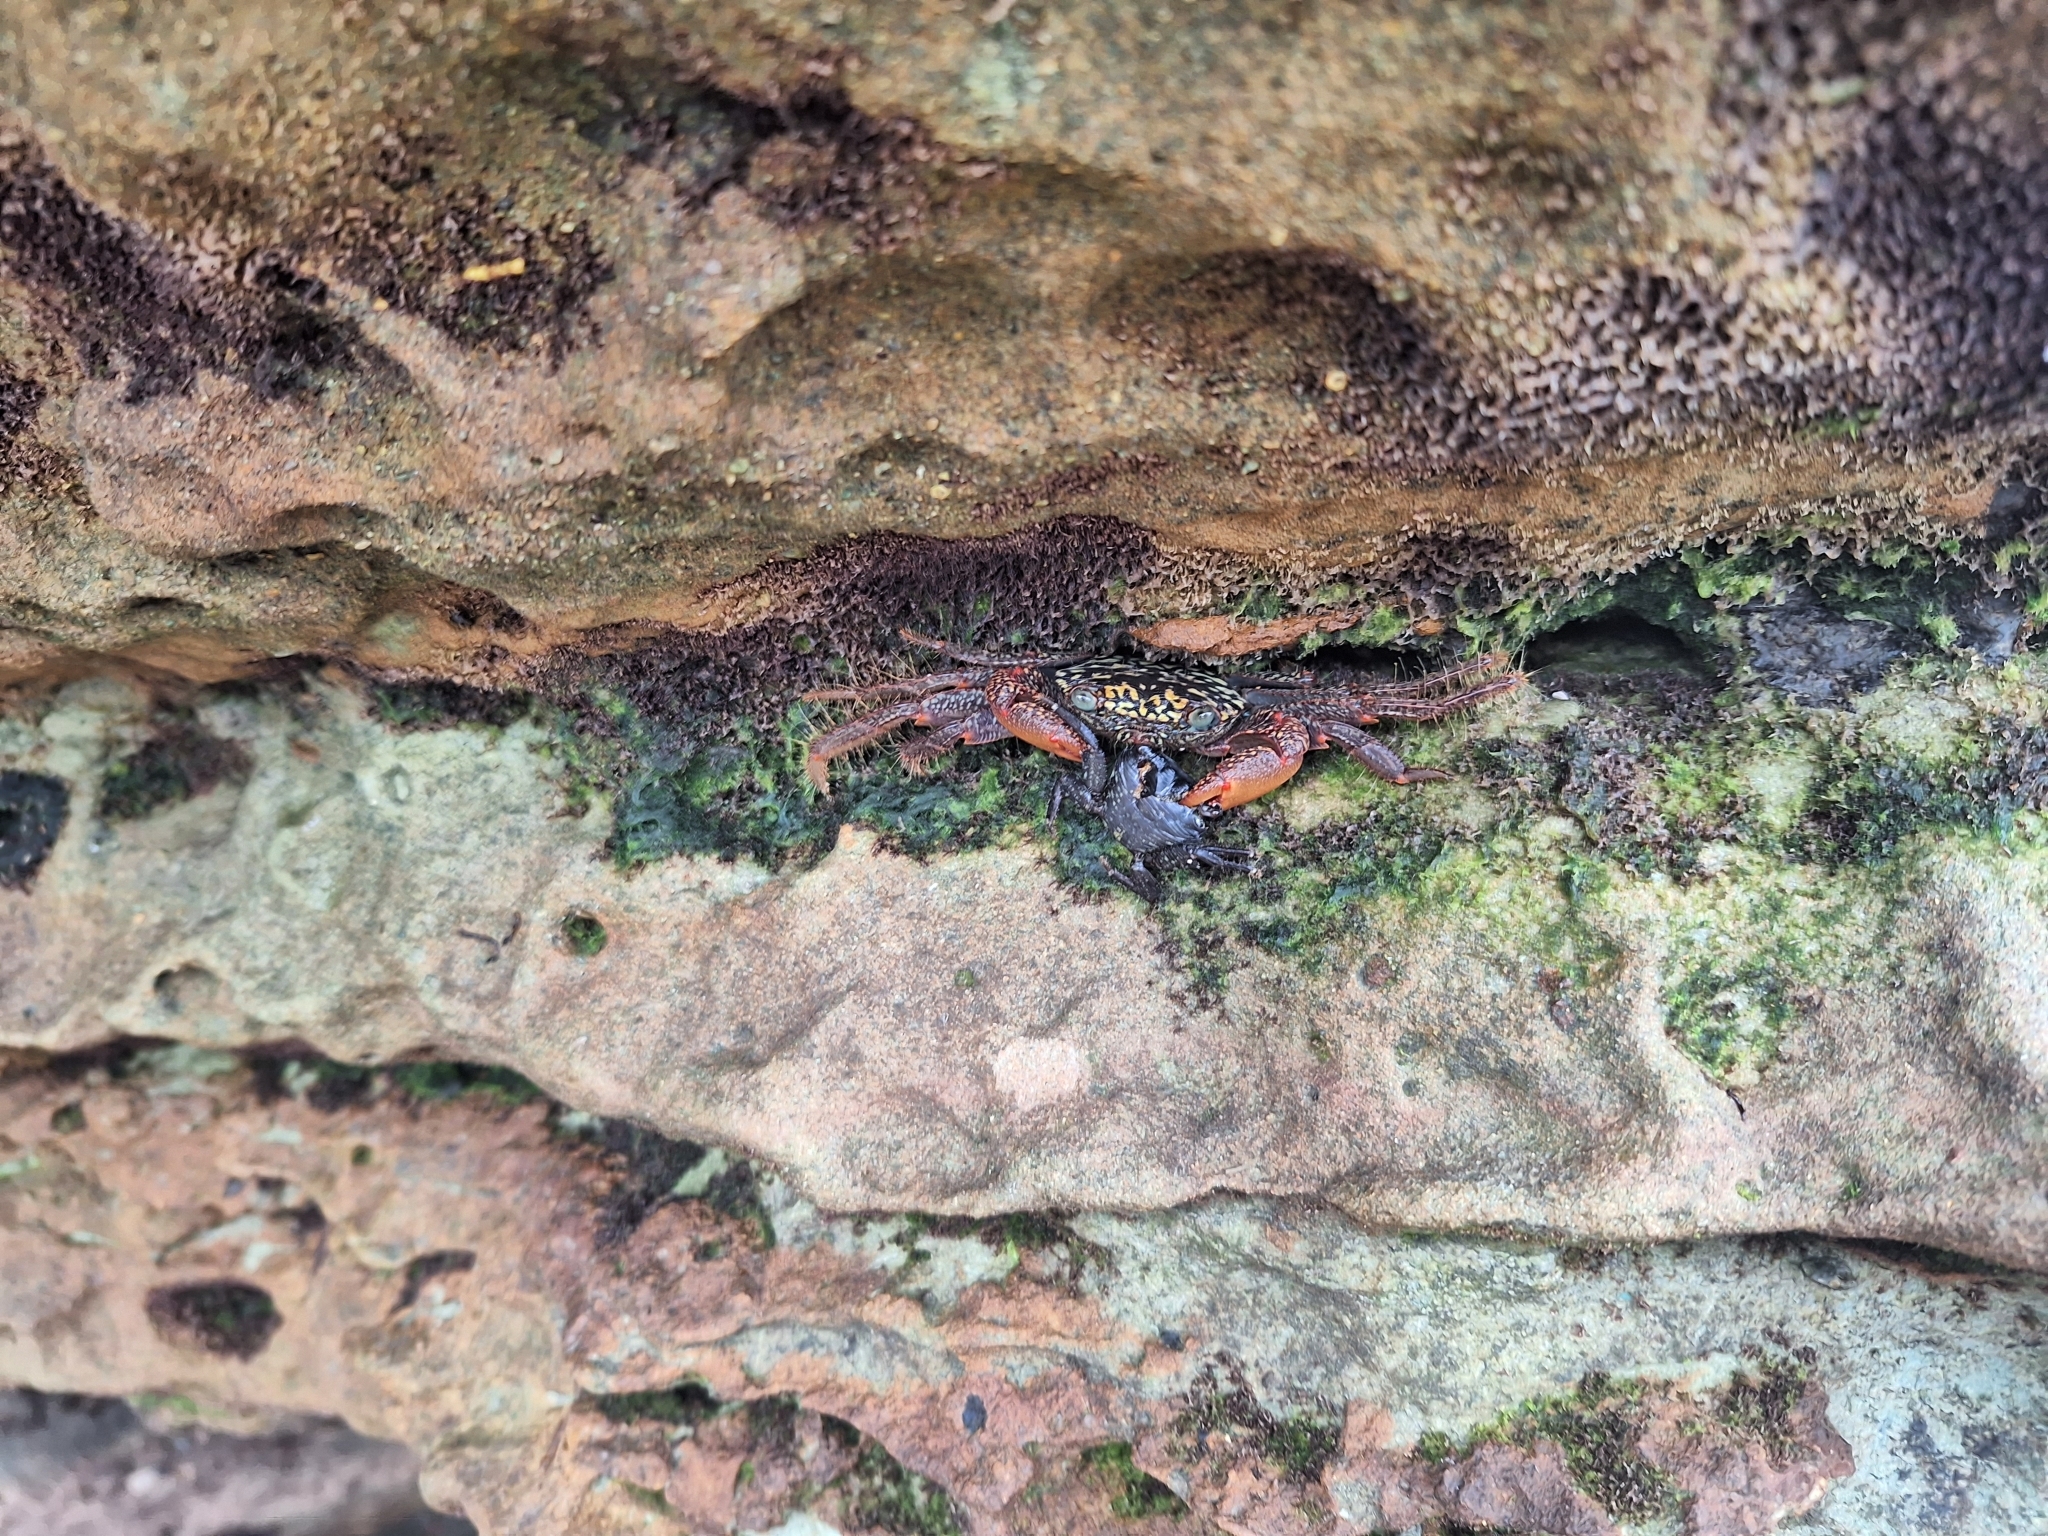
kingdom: Animalia
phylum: Arthropoda
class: Malacostraca
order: Decapoda
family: Grapsidae
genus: Geograpsus
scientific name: Geograpsus lividus
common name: Variegate shore crab
